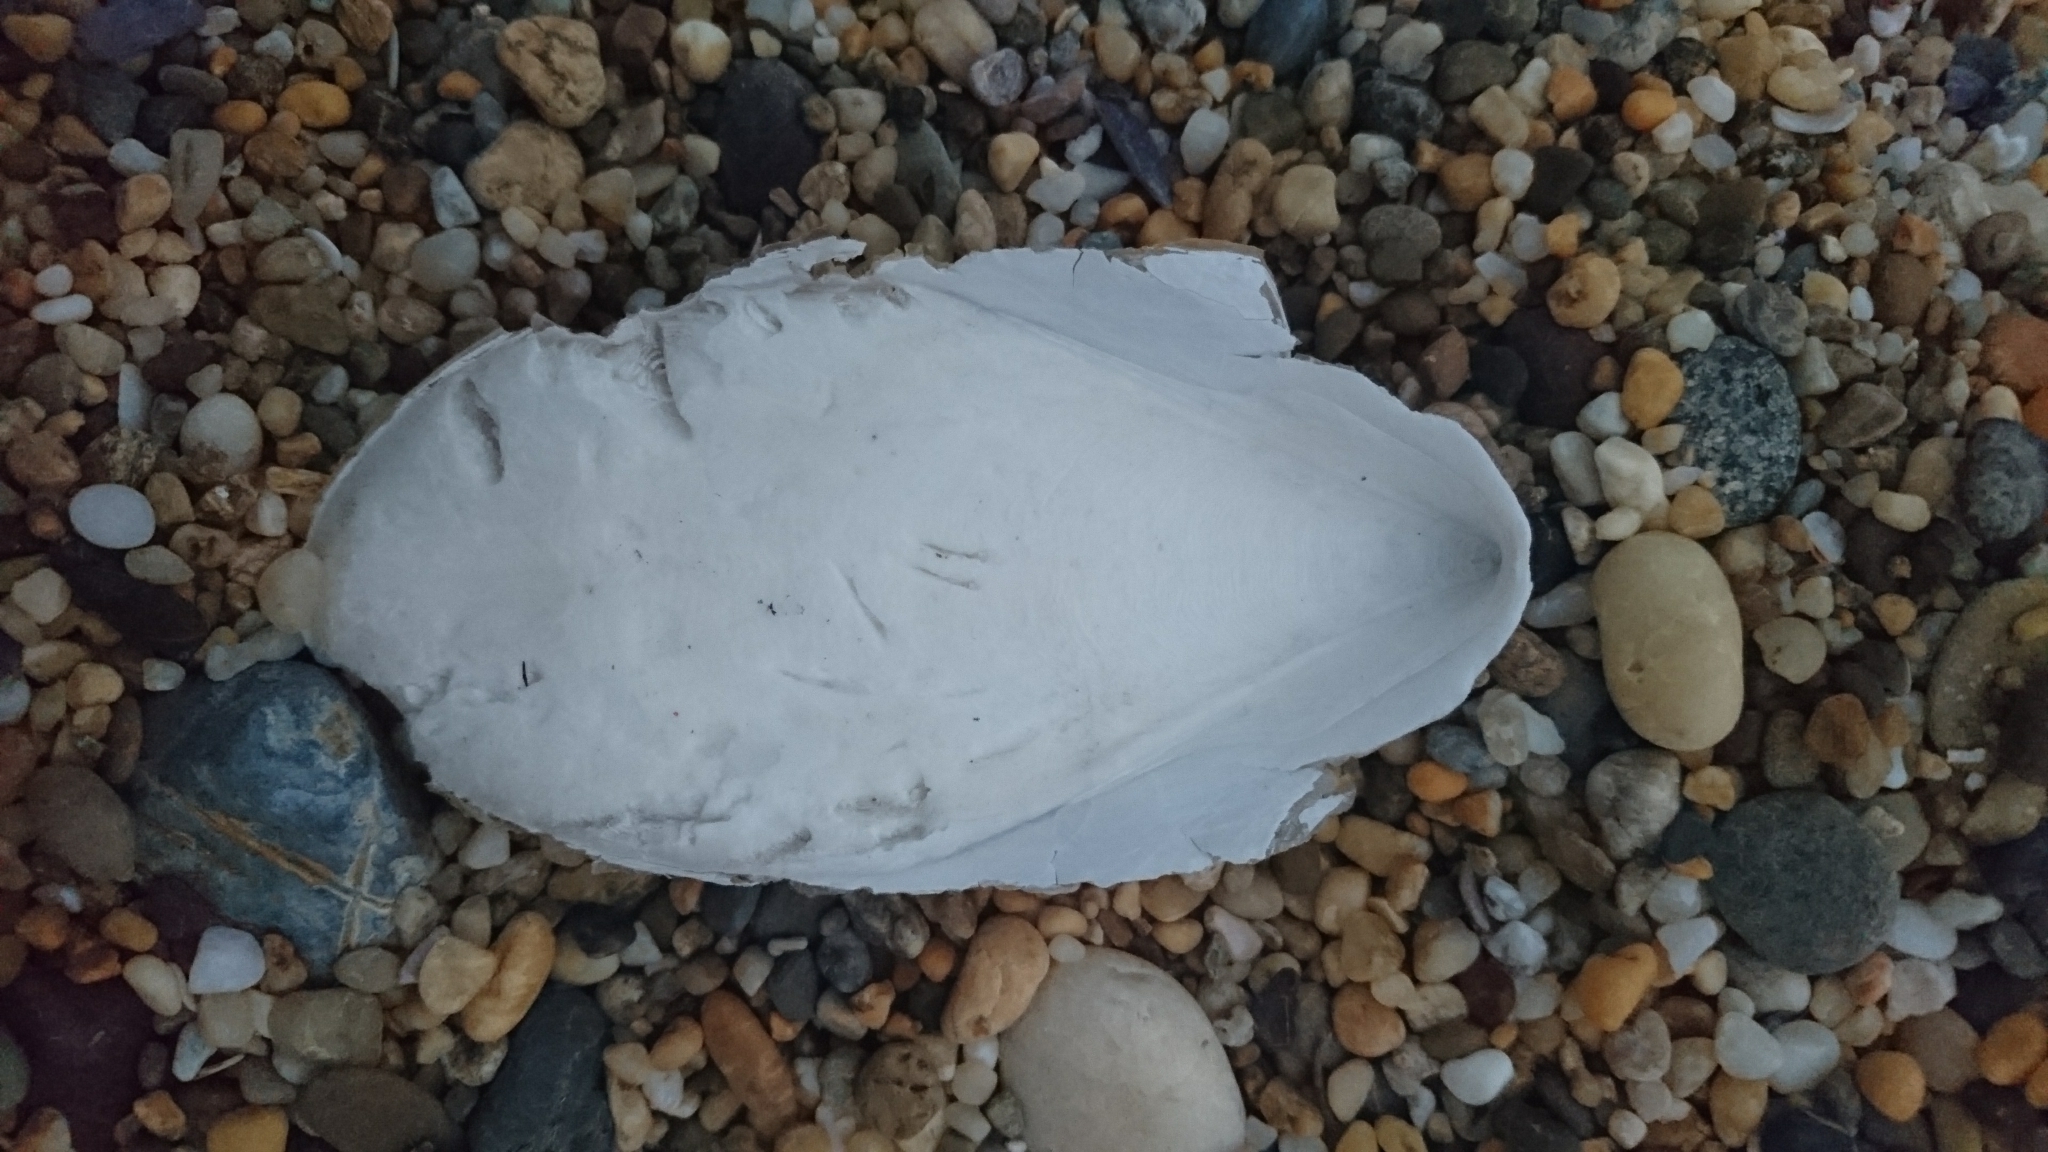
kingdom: Animalia
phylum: Mollusca
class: Cephalopoda
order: Sepiida
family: Sepiidae
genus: Ascarosepion
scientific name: Ascarosepion mestus
